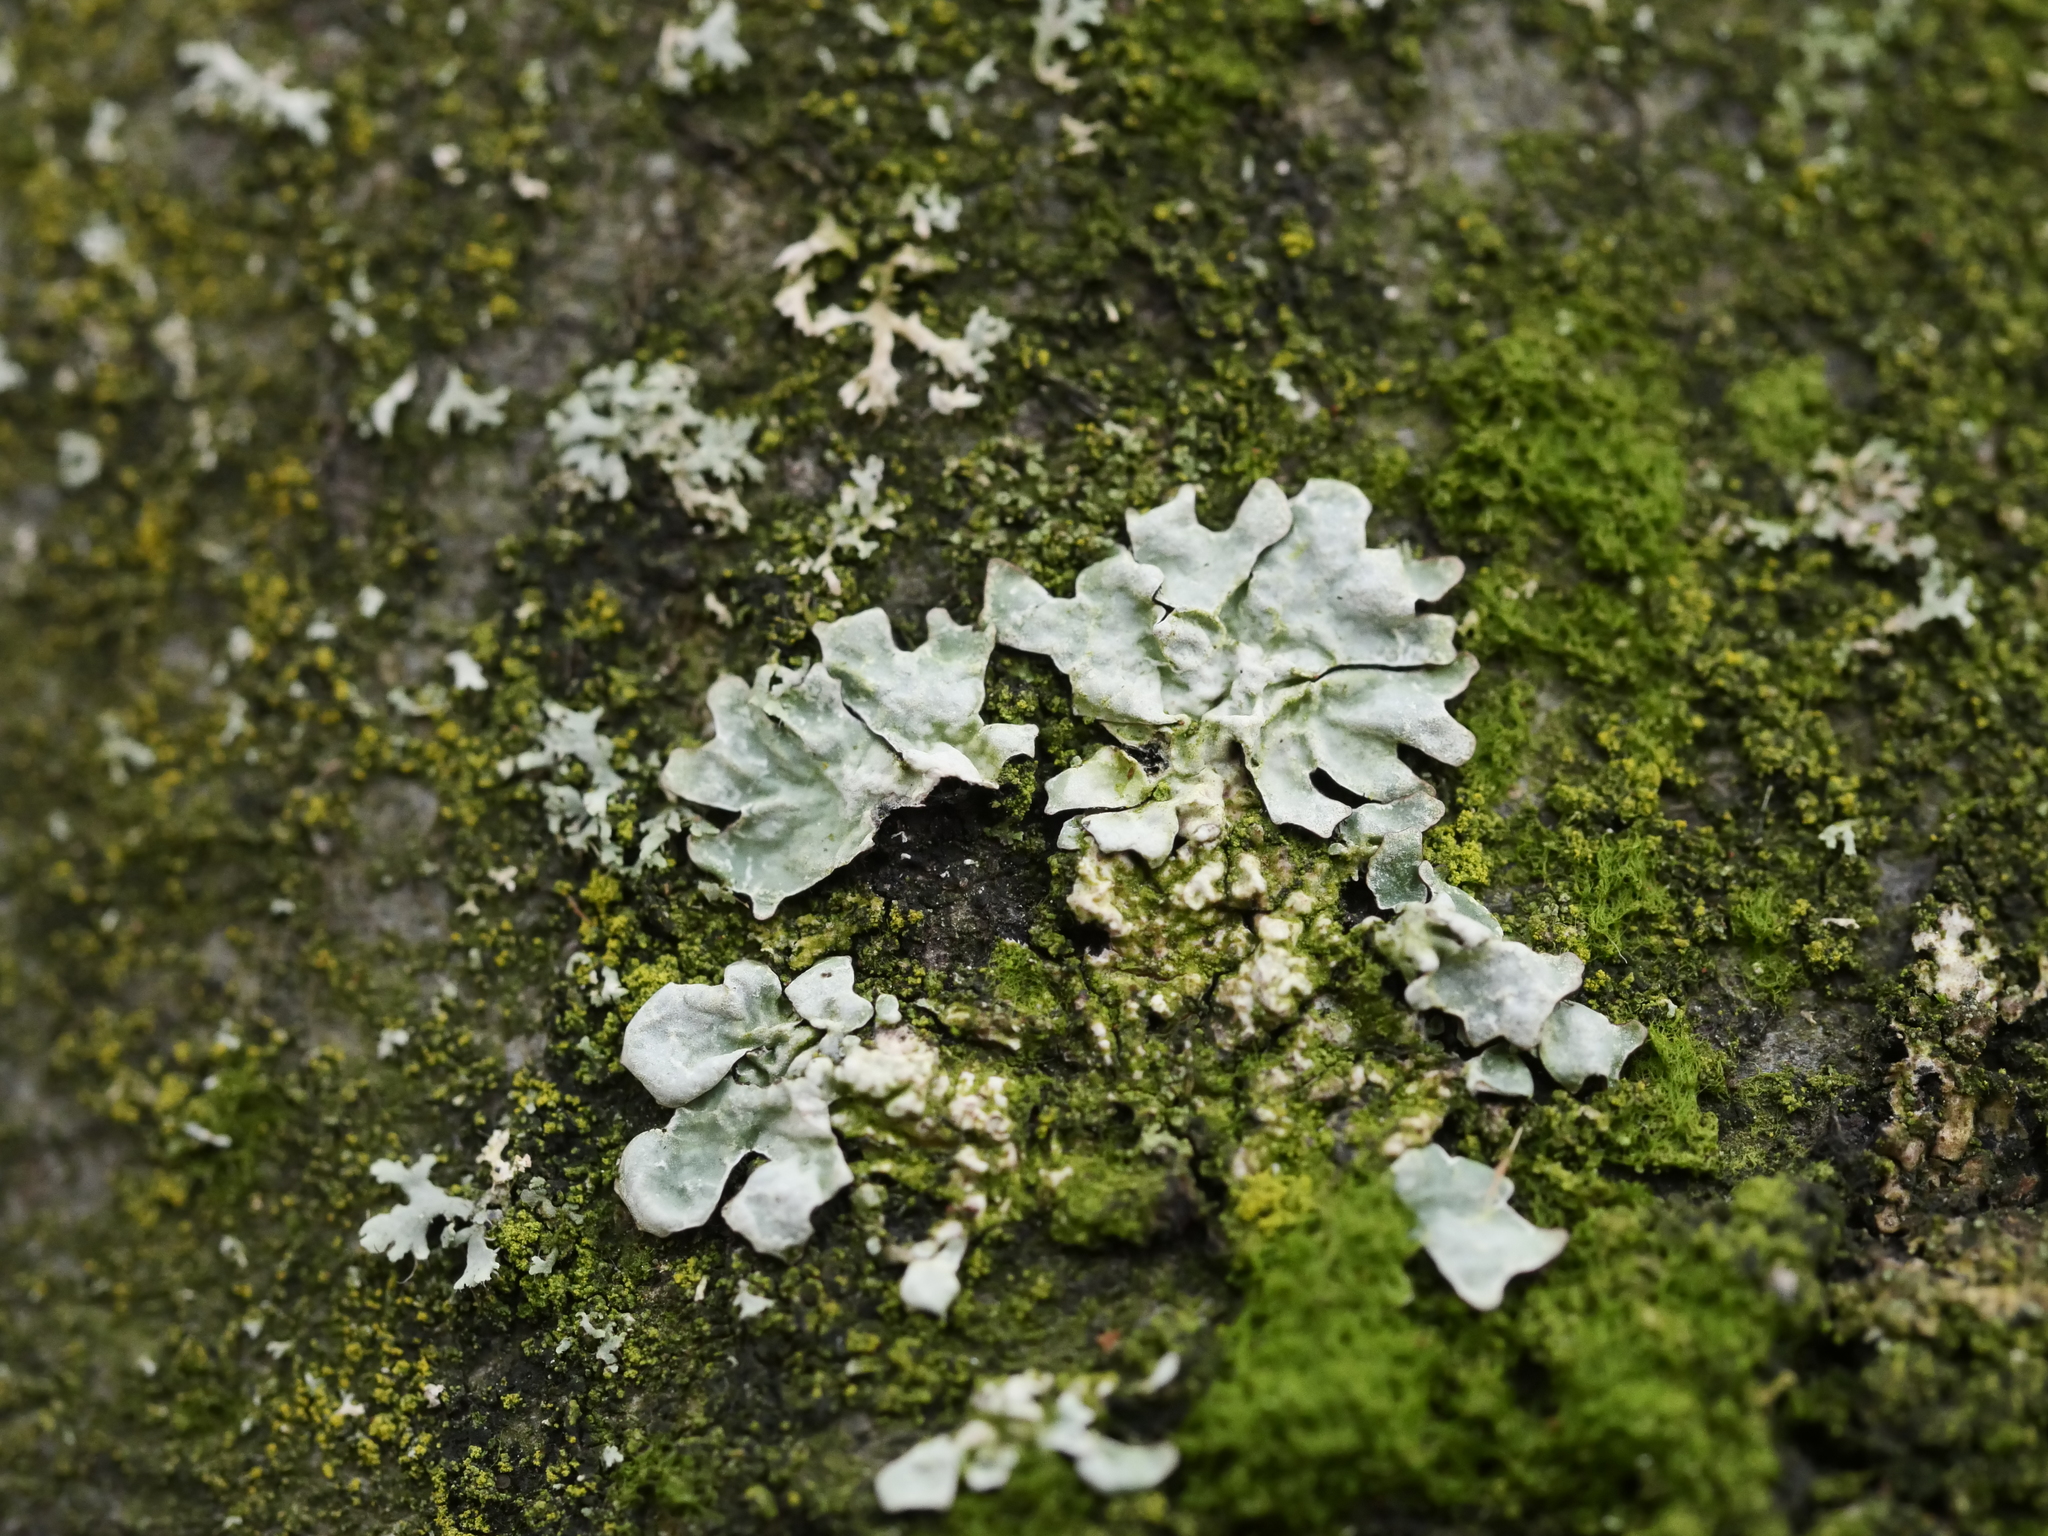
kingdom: Fungi
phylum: Ascomycota
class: Lecanoromycetes
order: Lecanorales
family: Parmeliaceae
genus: Parmelia
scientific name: Parmelia sulcata
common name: Netted shield lichen
